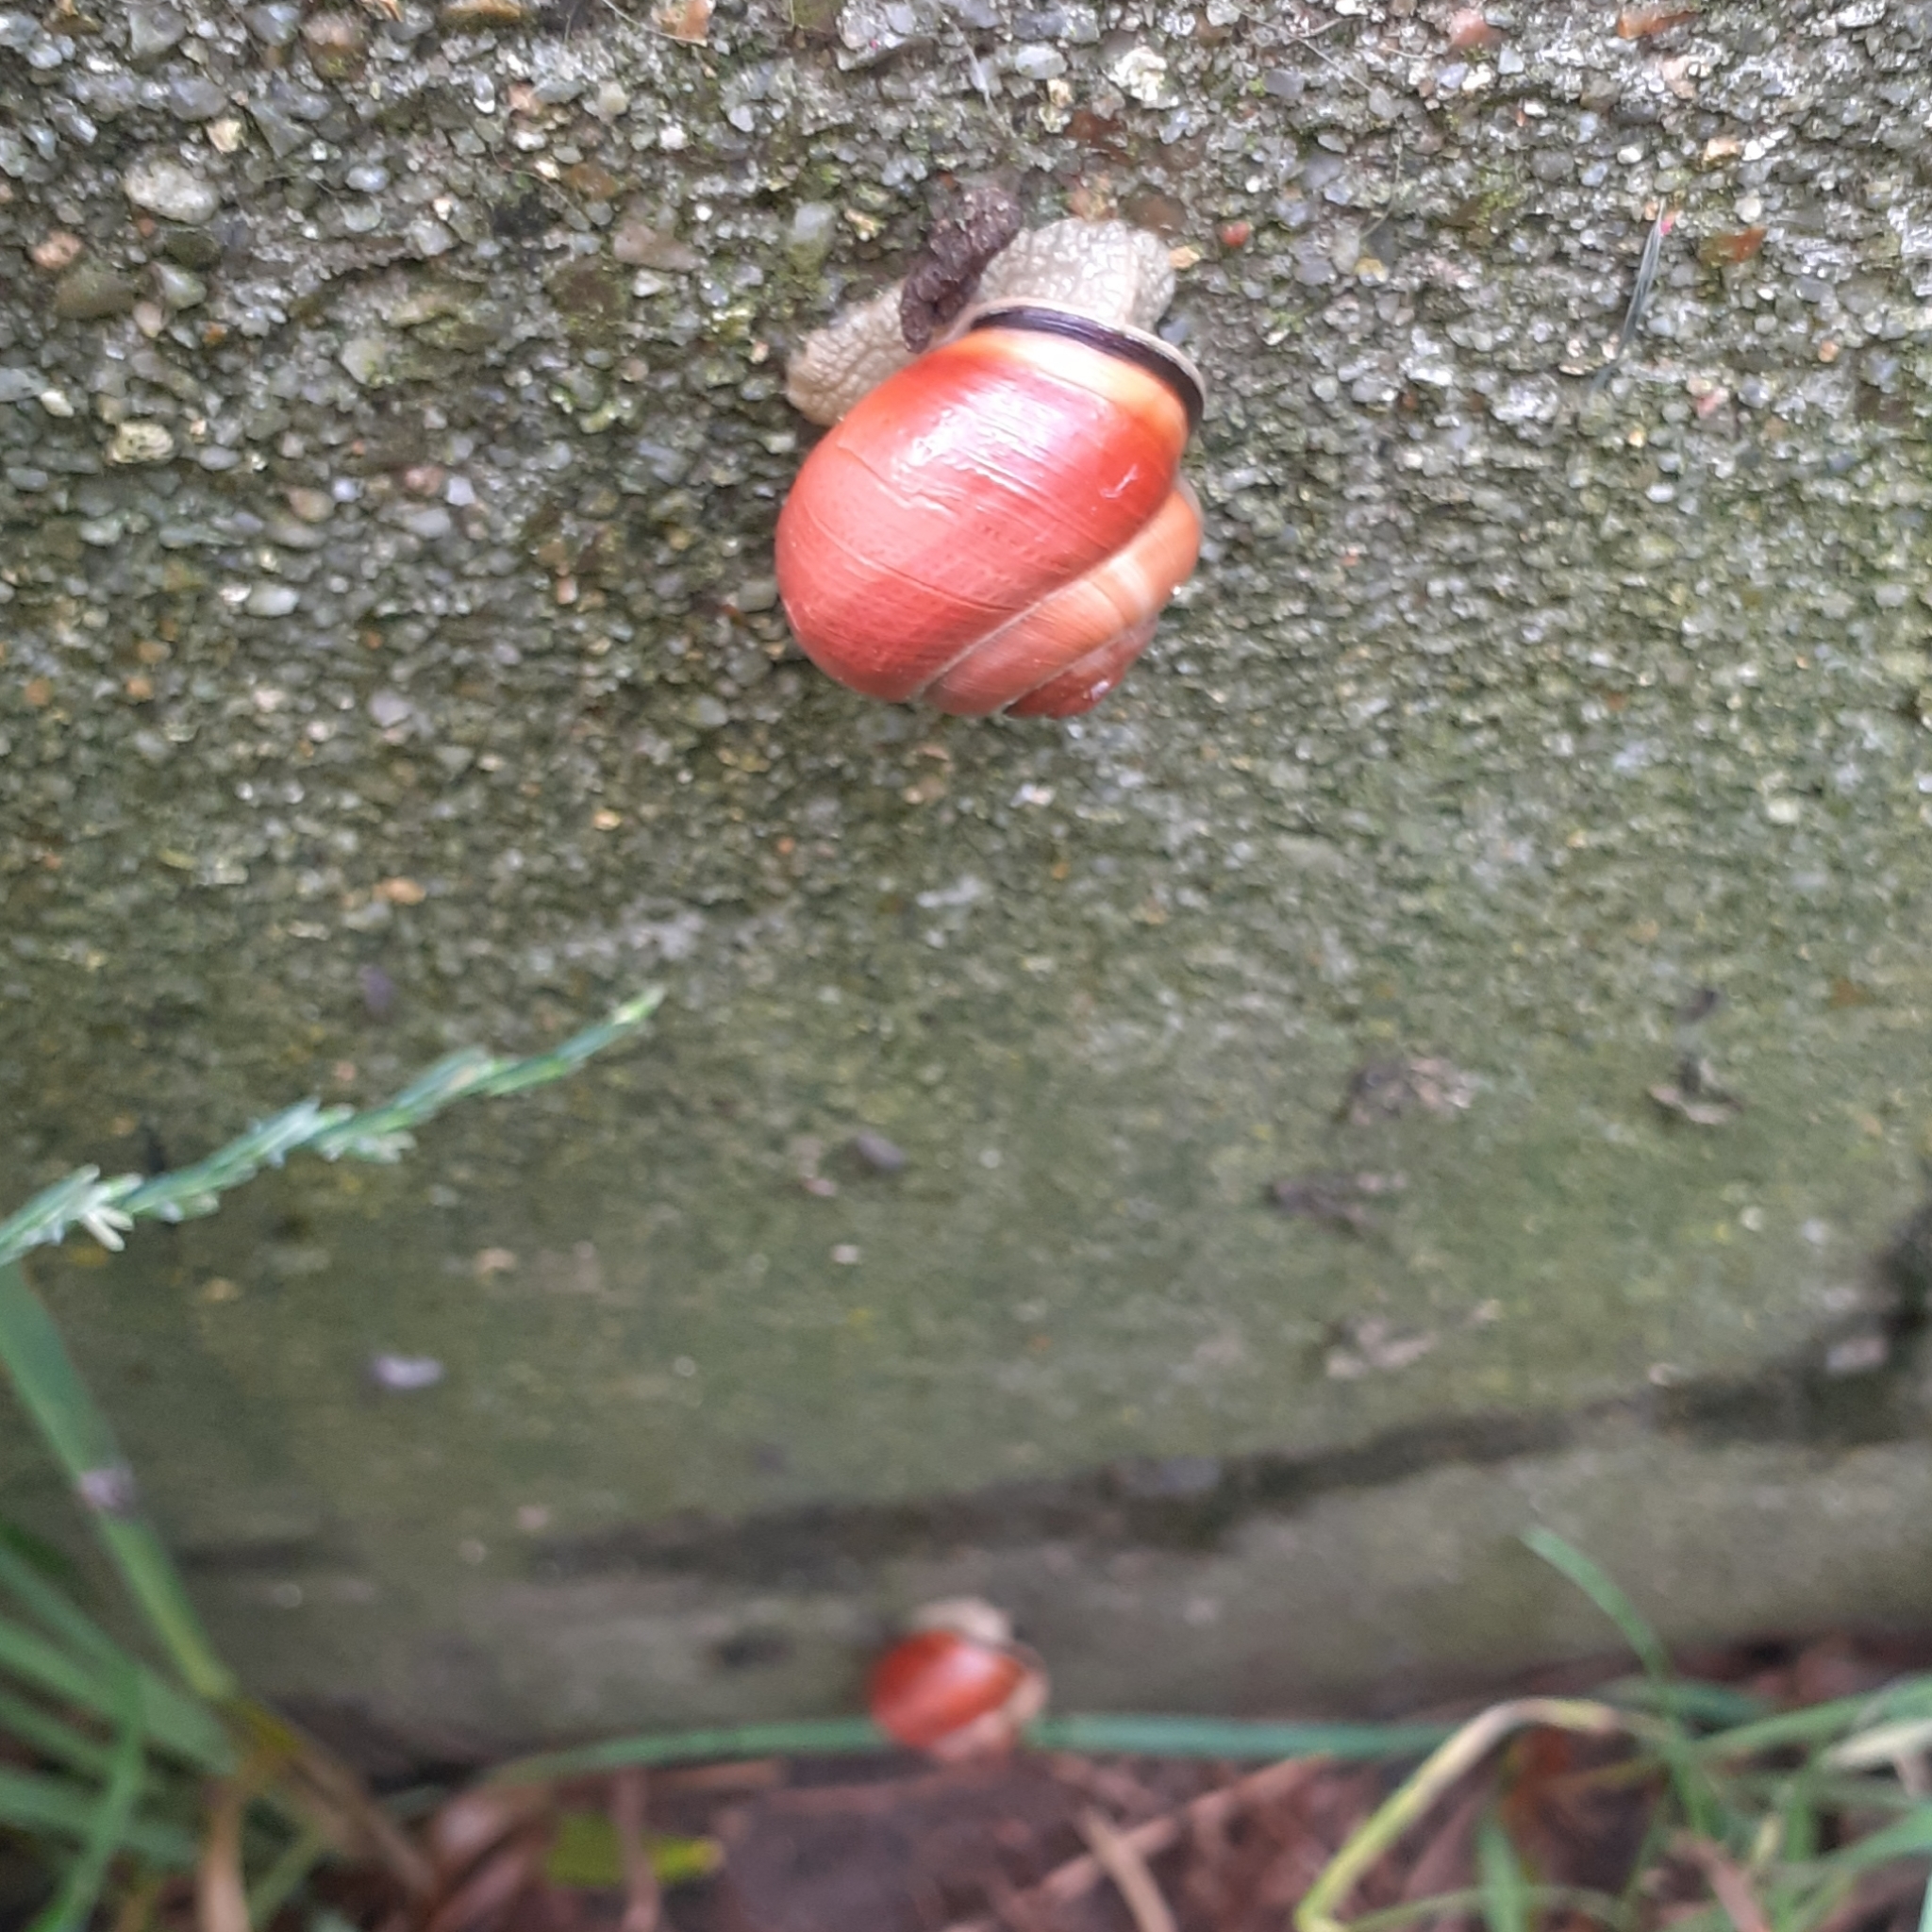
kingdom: Animalia
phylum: Mollusca
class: Gastropoda
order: Stylommatophora
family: Helicidae
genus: Cepaea
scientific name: Cepaea nemoralis
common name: Grovesnail
